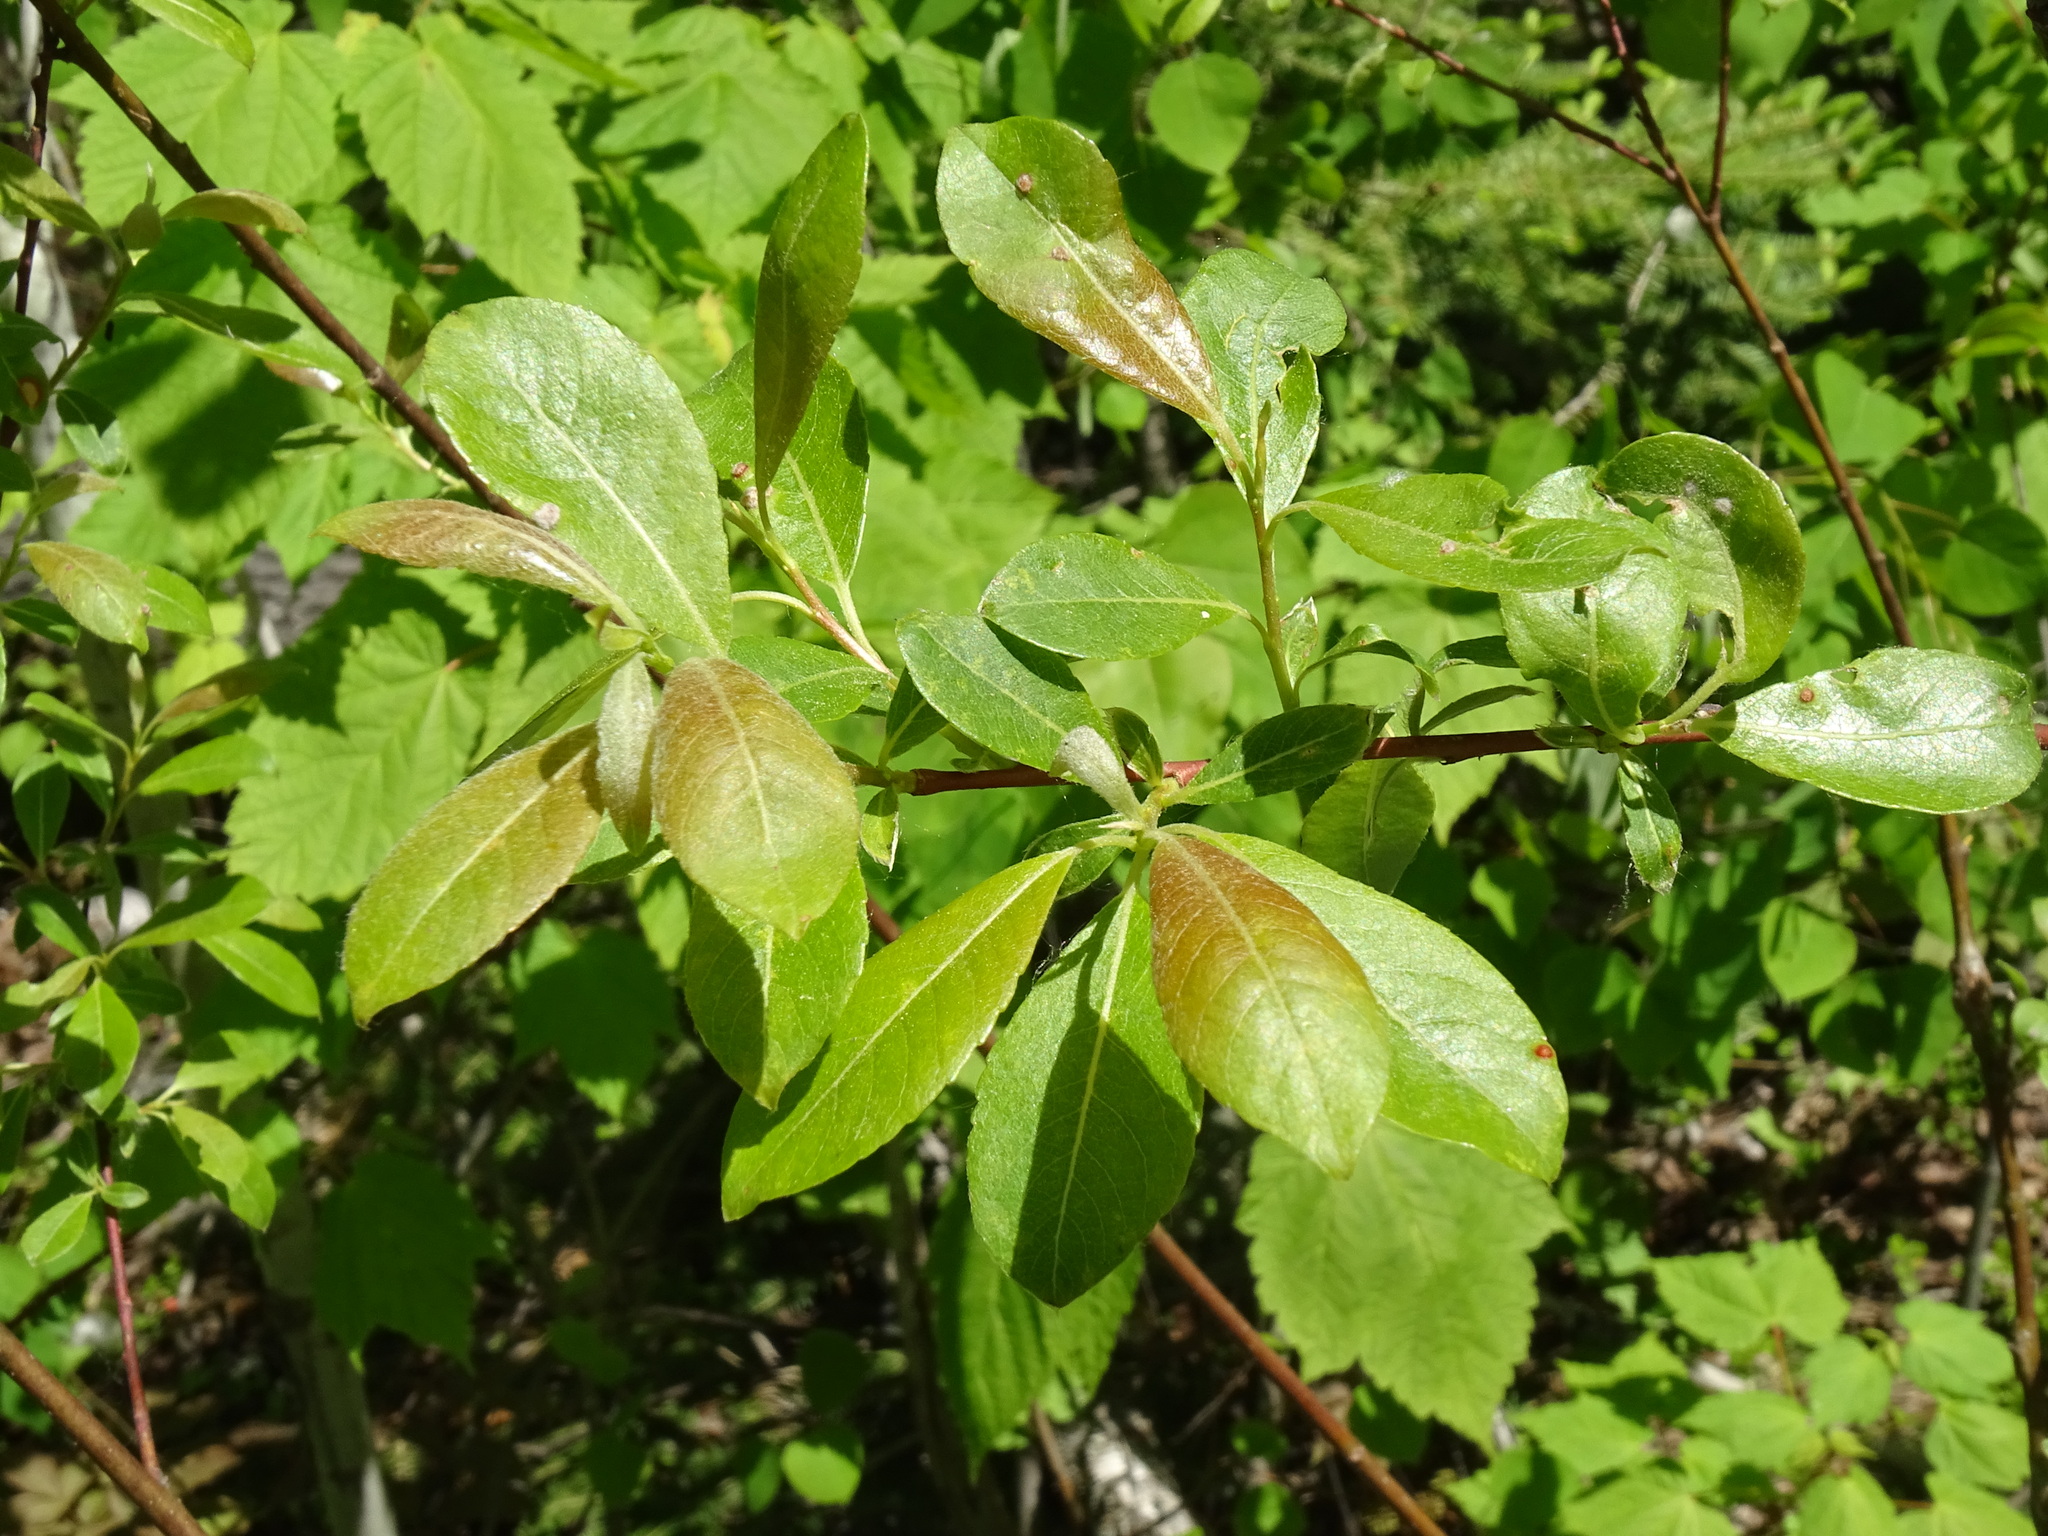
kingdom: Plantae
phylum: Tracheophyta
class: Magnoliopsida
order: Malpighiales
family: Salicaceae
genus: Salix
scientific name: Salix discolor
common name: Glaucous willow
